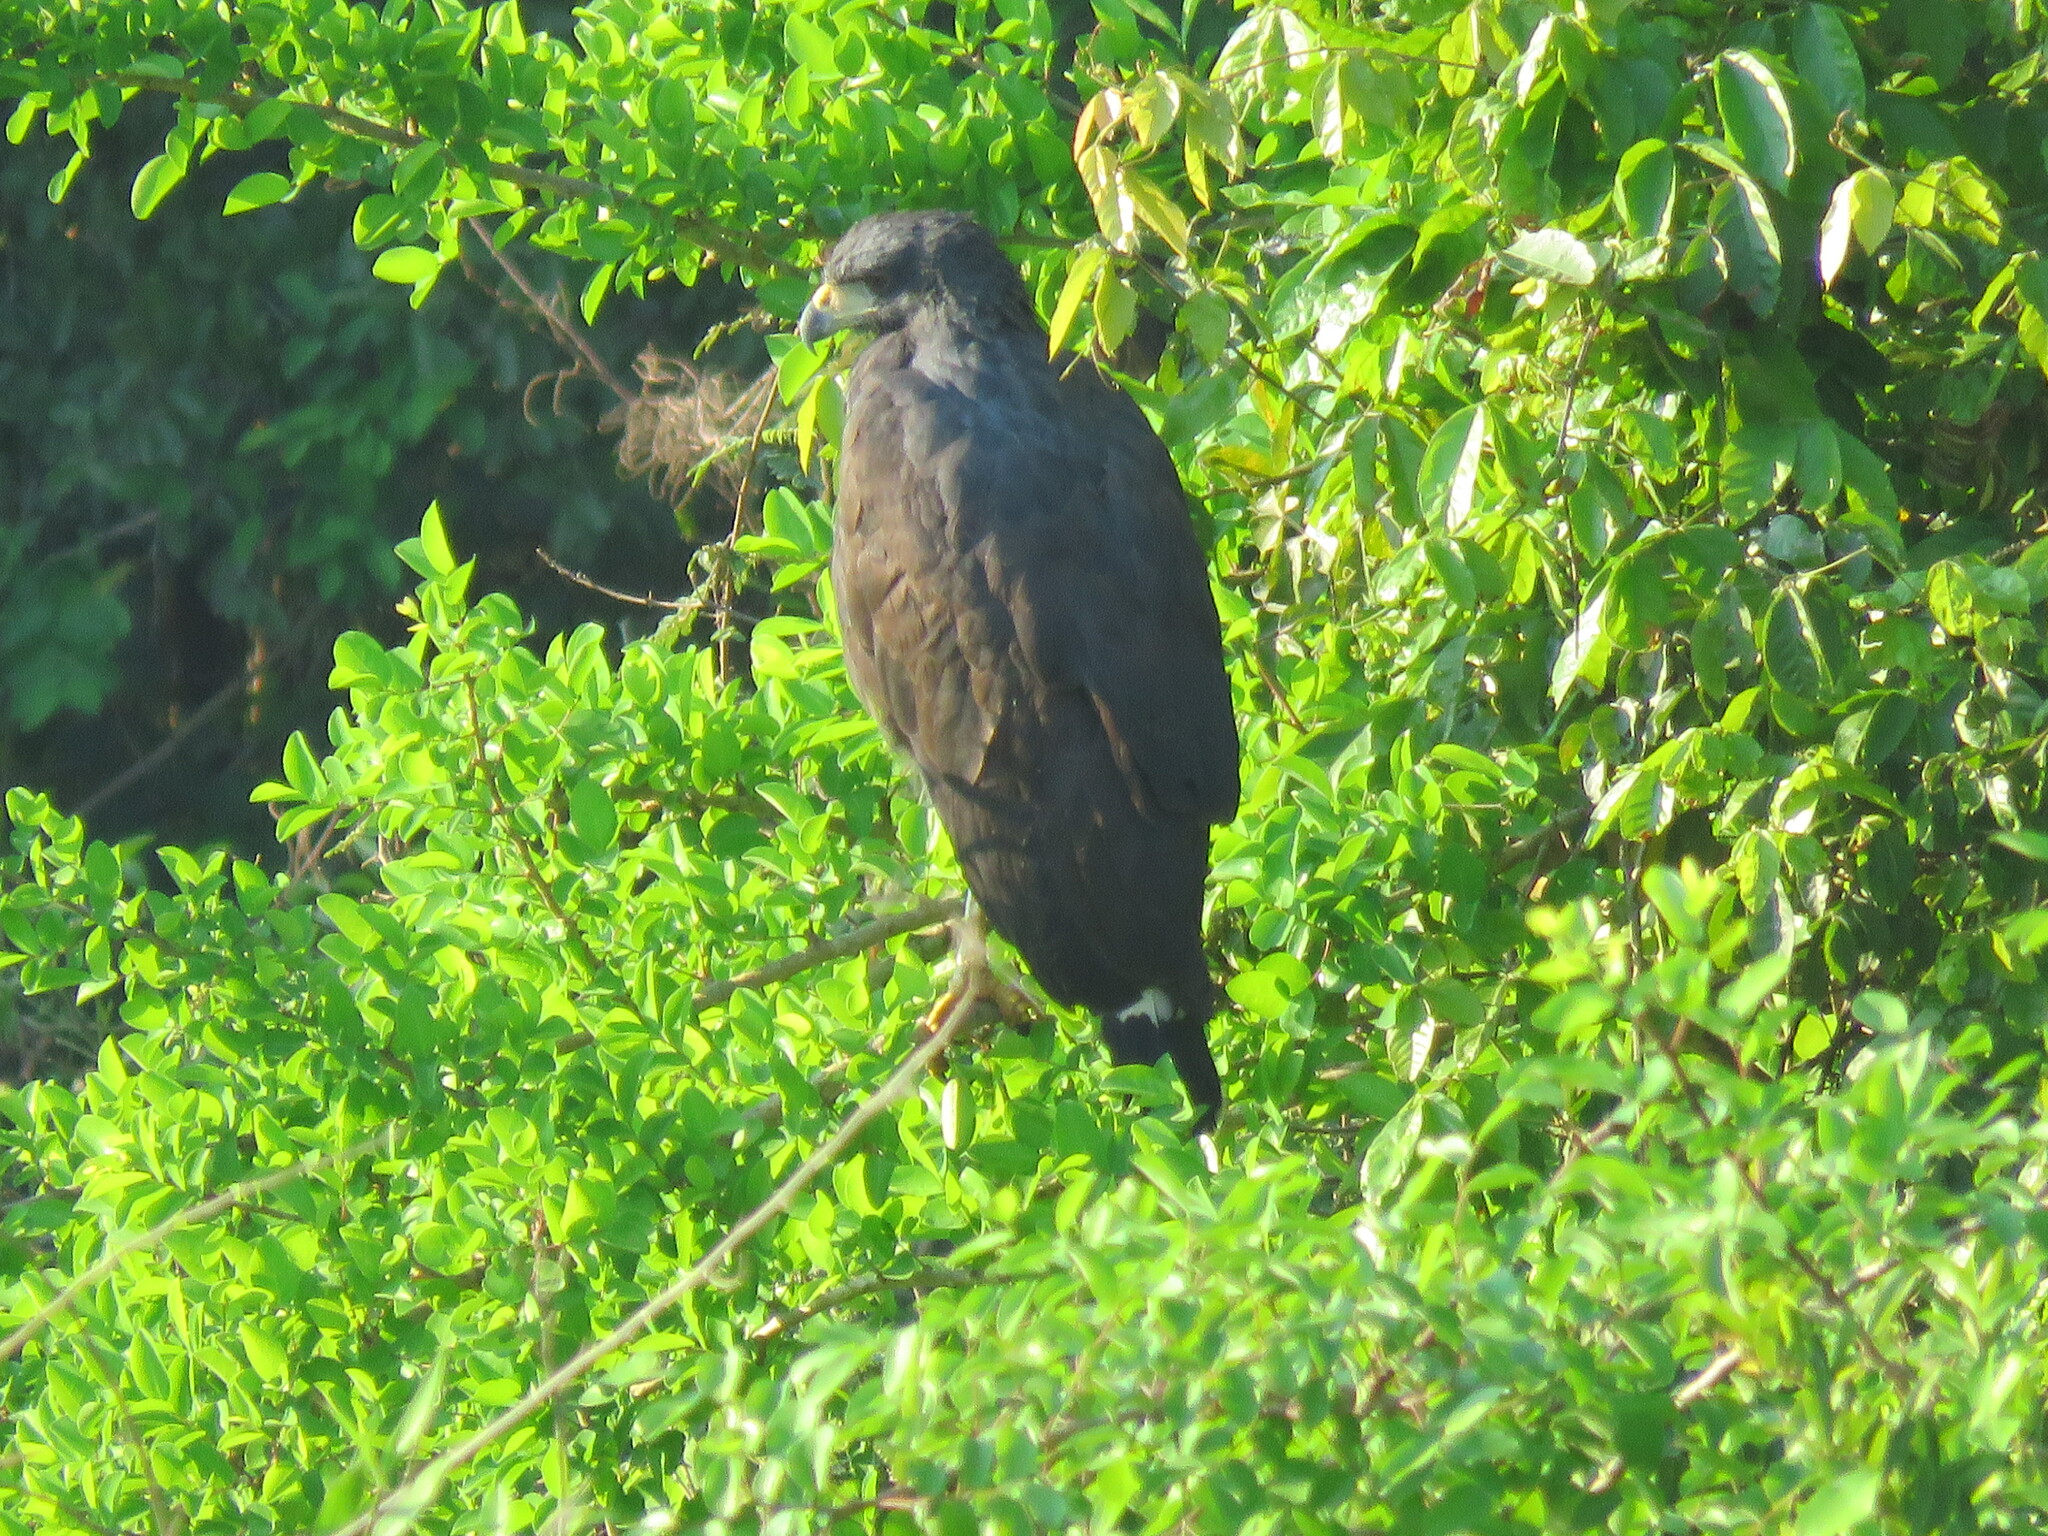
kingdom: Animalia
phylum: Chordata
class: Aves
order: Accipitriformes
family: Accipitridae
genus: Buteogallus
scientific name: Buteogallus urubitinga
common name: Great black hawk
